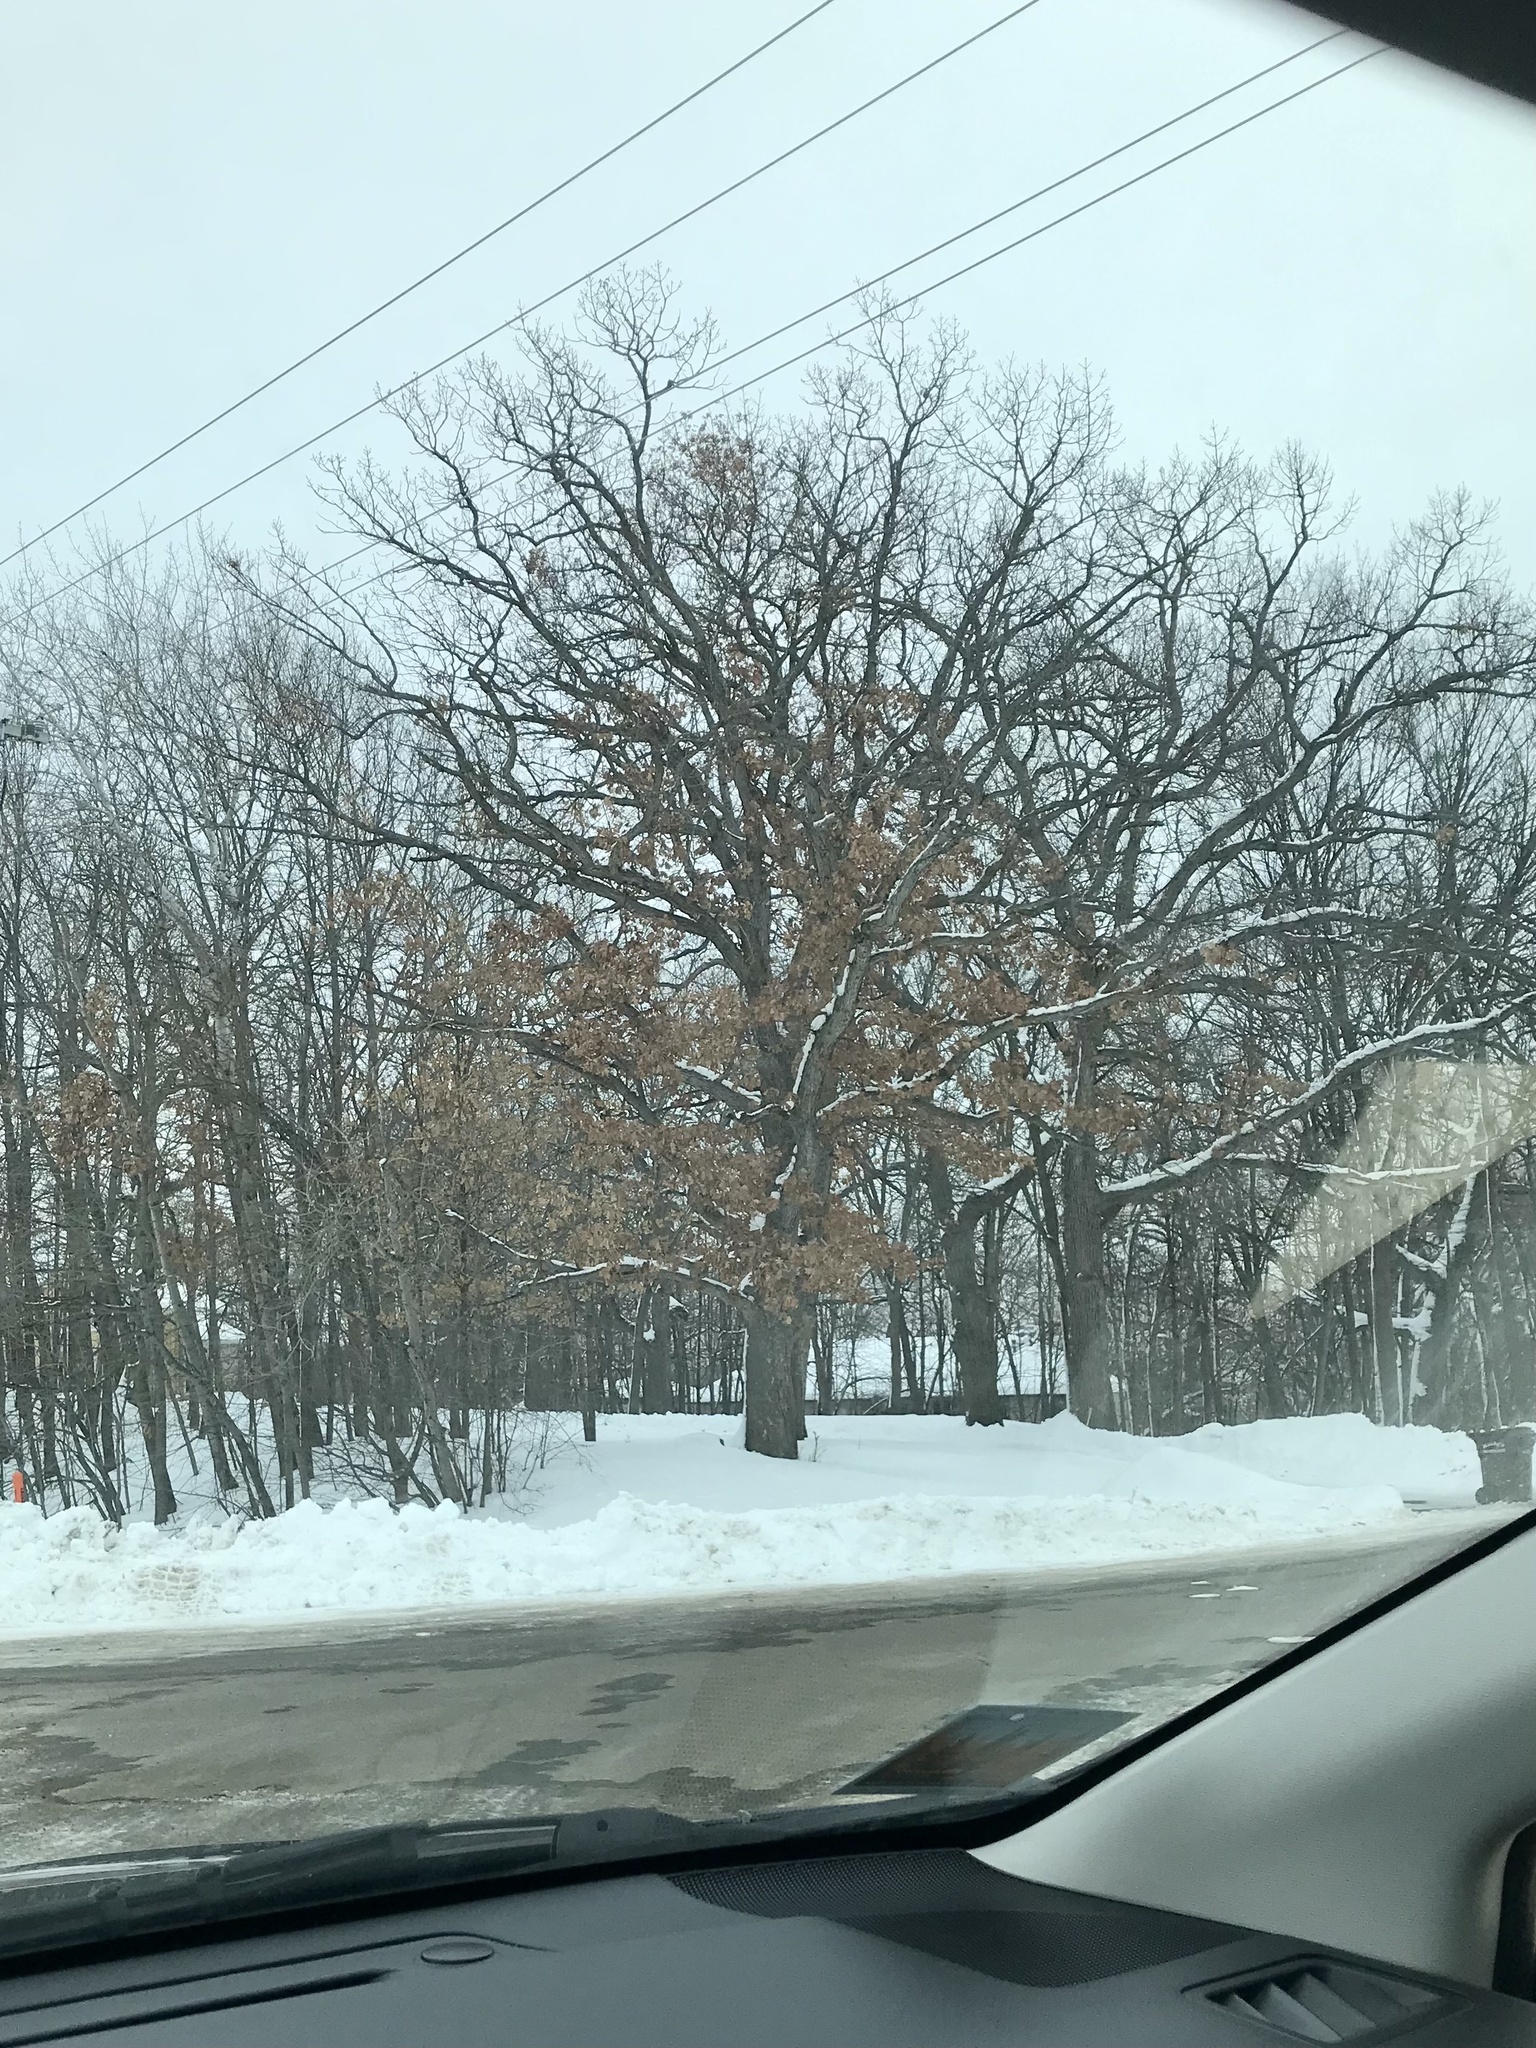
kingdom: Plantae
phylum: Tracheophyta
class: Magnoliopsida
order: Fagales
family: Fagaceae
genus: Quercus
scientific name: Quercus alba
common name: White oak
